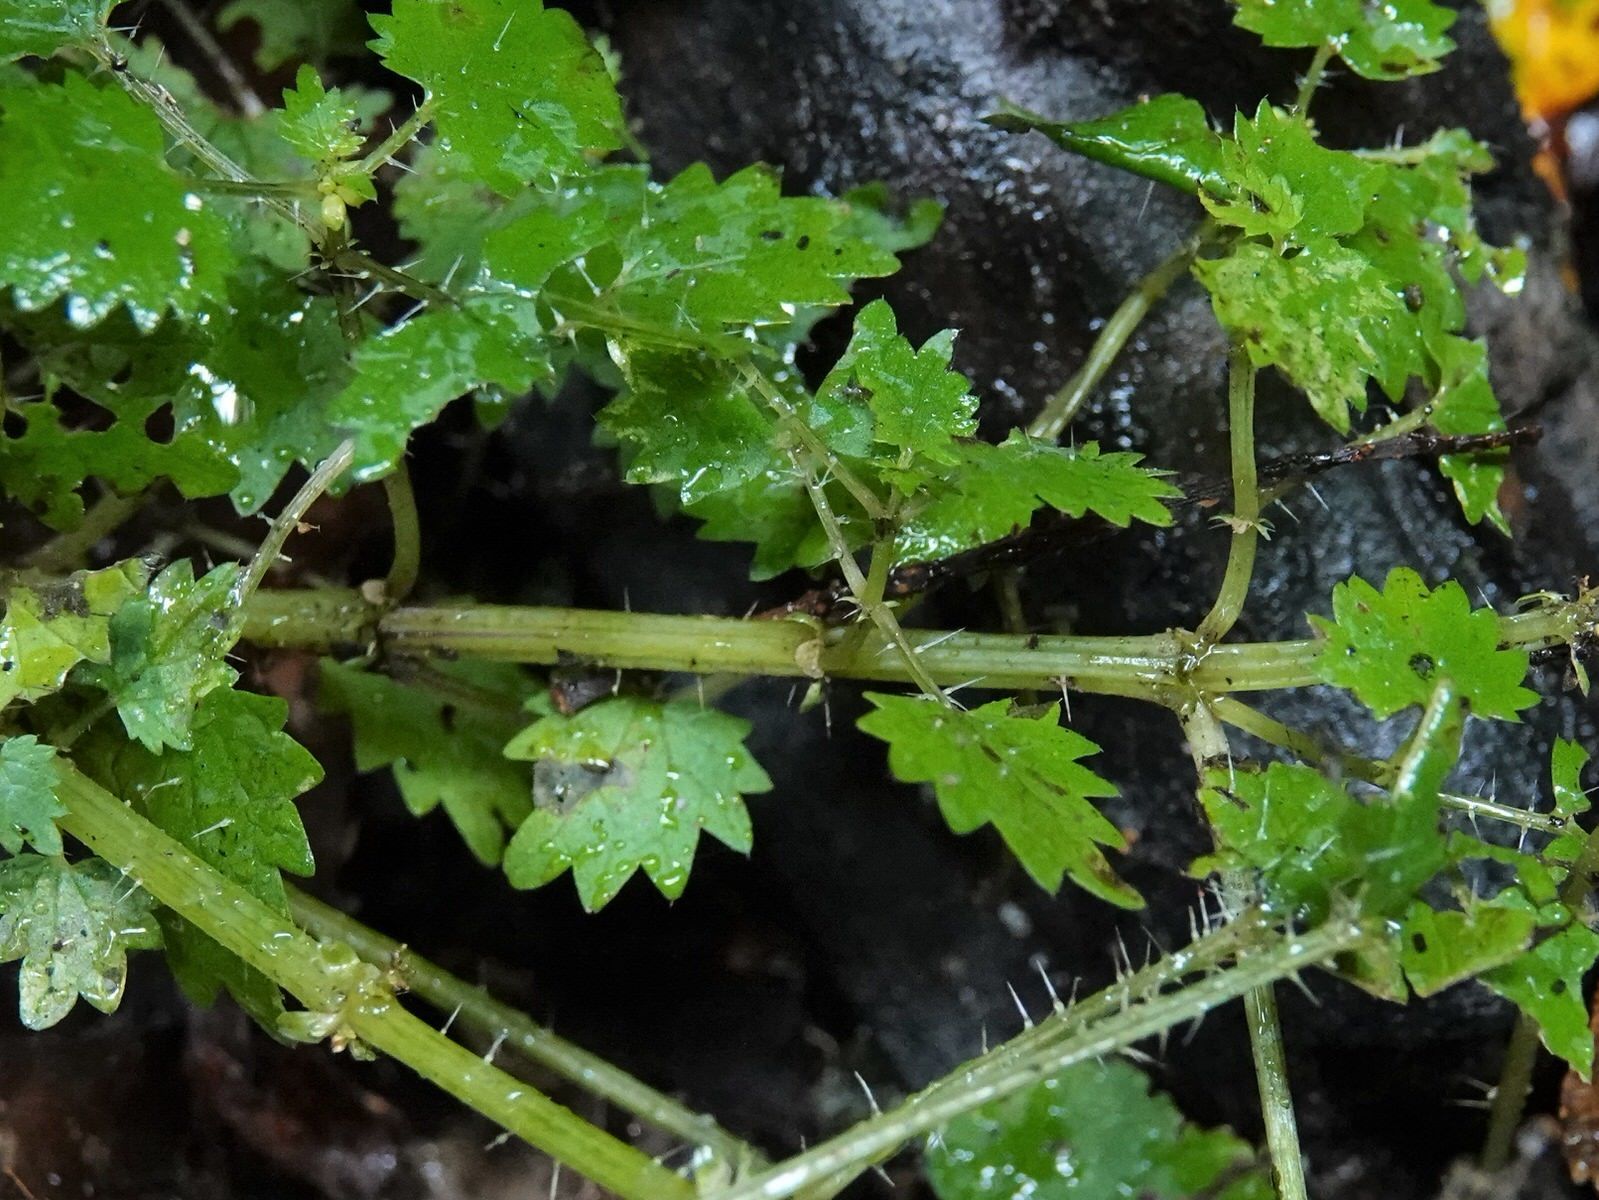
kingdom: Plantae
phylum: Tracheophyta
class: Magnoliopsida
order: Rosales
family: Urticaceae
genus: Urtica
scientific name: Urtica sykesii
